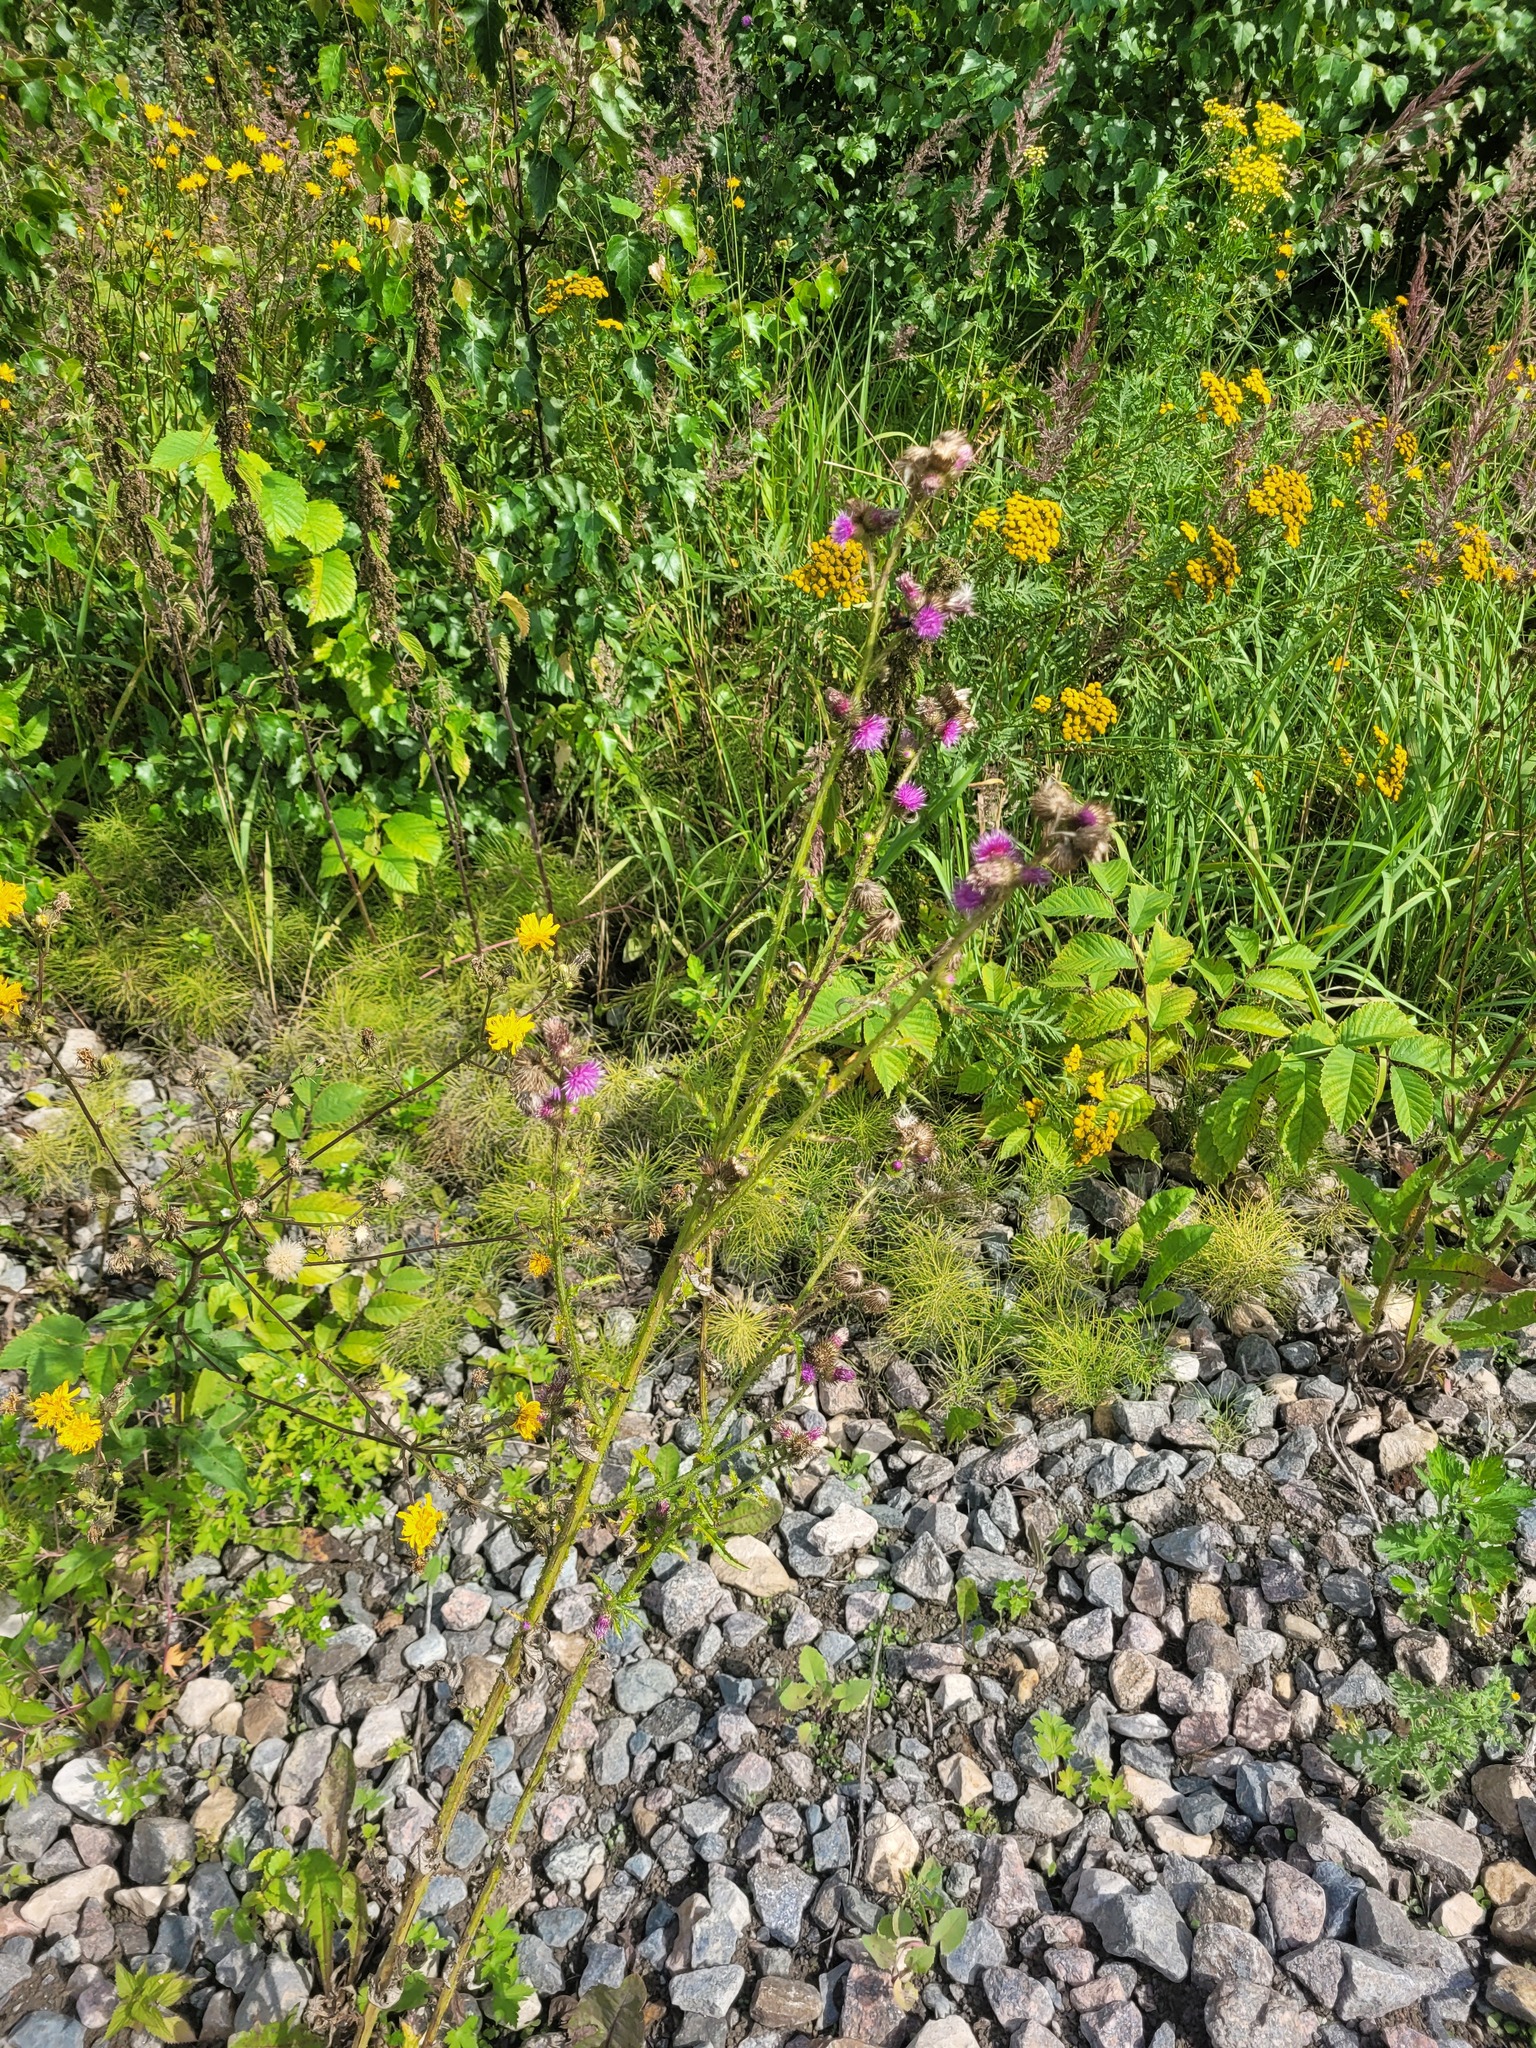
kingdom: Plantae
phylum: Tracheophyta
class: Magnoliopsida
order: Asterales
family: Asteraceae
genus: Carduus
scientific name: Carduus crispus
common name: Welted thistle
